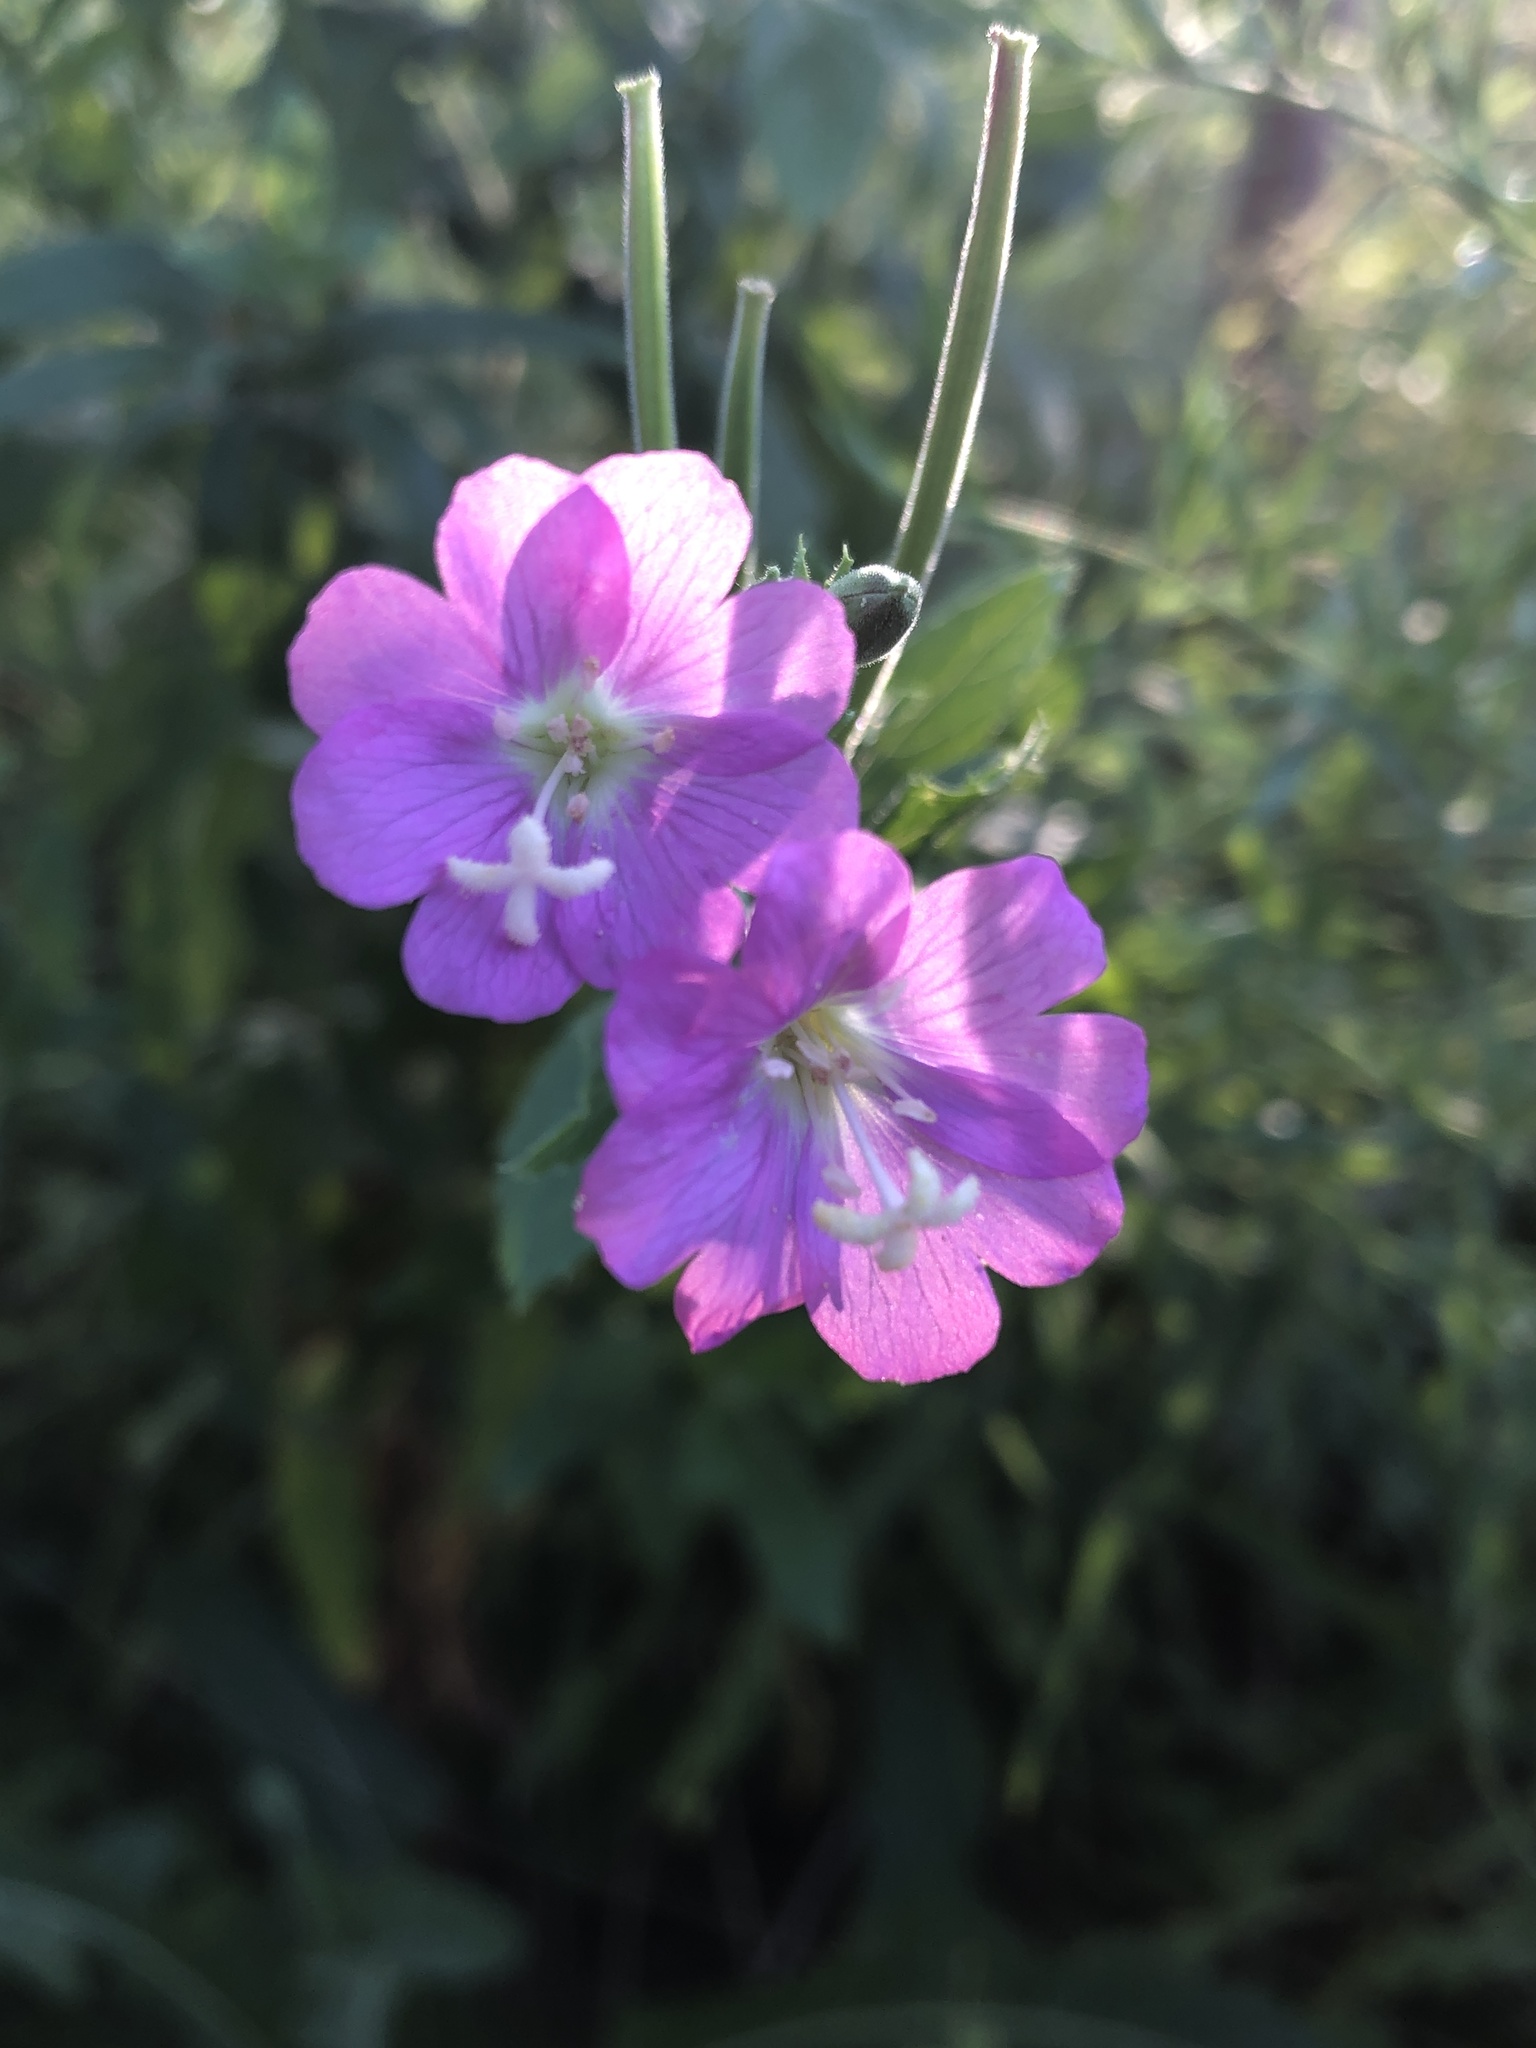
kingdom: Plantae
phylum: Tracheophyta
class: Magnoliopsida
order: Myrtales
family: Onagraceae
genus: Epilobium
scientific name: Epilobium hirsutum
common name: Great willowherb
